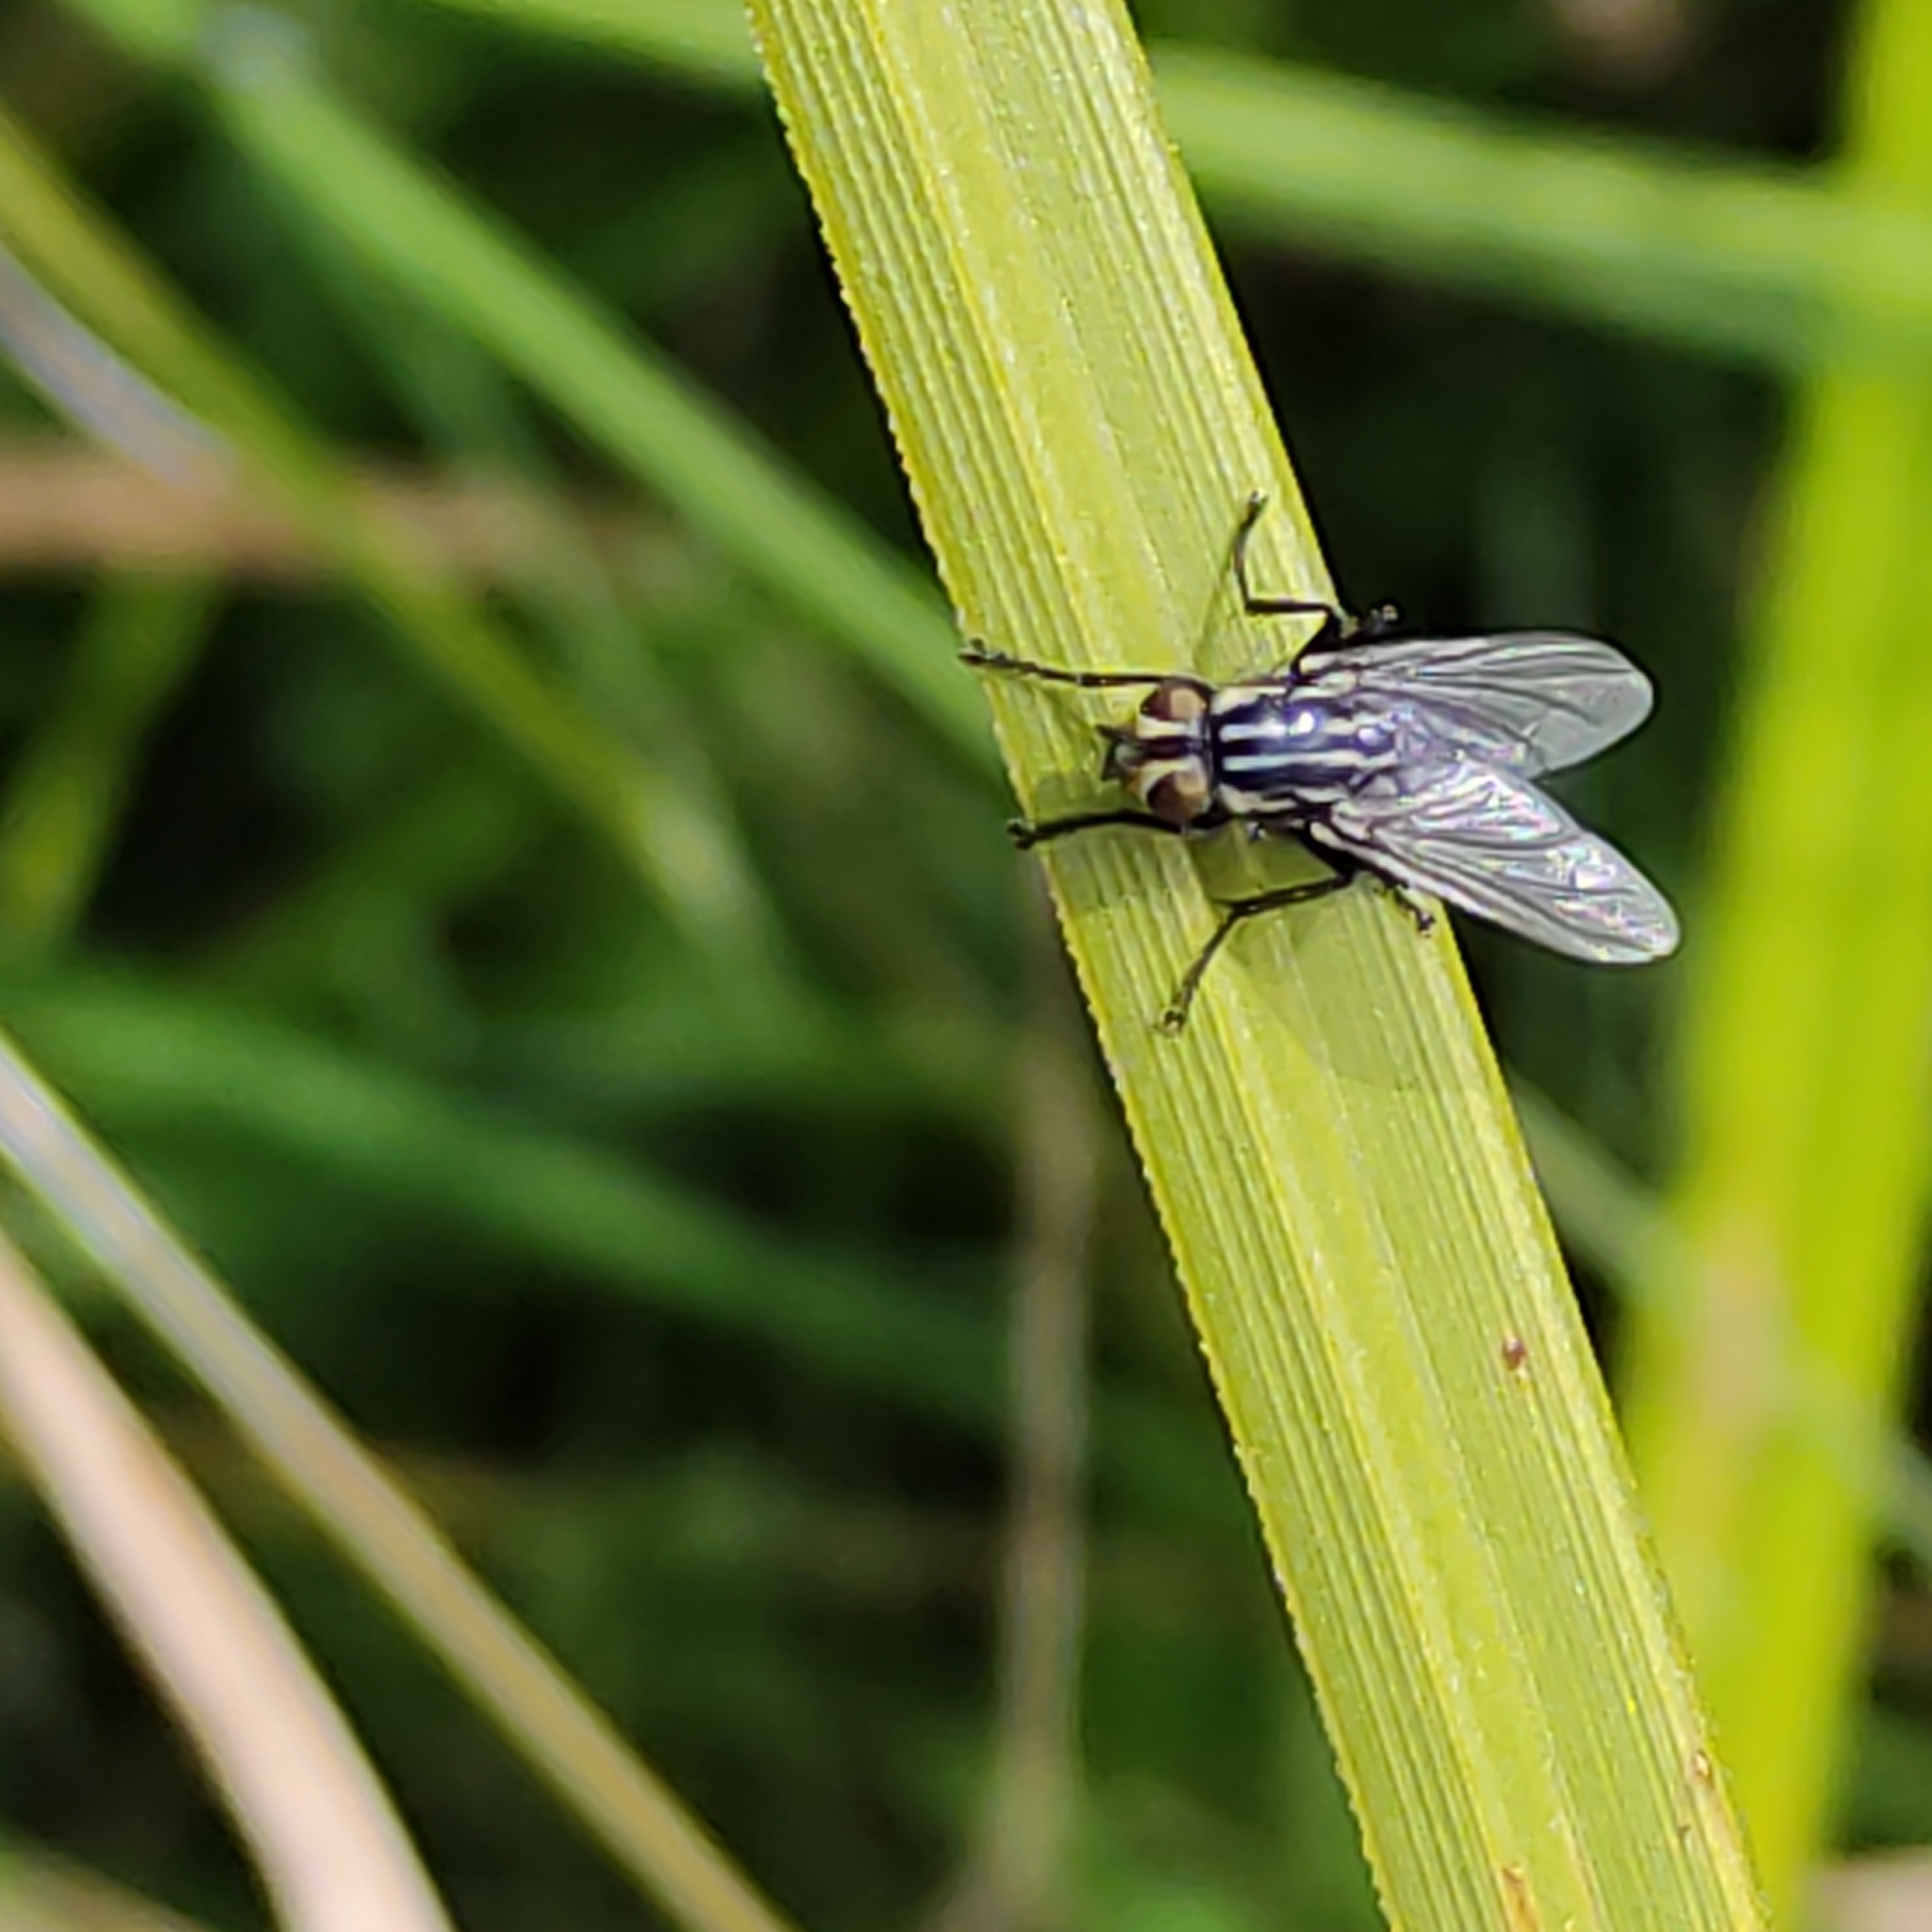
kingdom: Animalia
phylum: Arthropoda
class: Insecta
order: Diptera
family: Sarcophagidae
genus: Oxysarcodexia
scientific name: Oxysarcodexia varia
